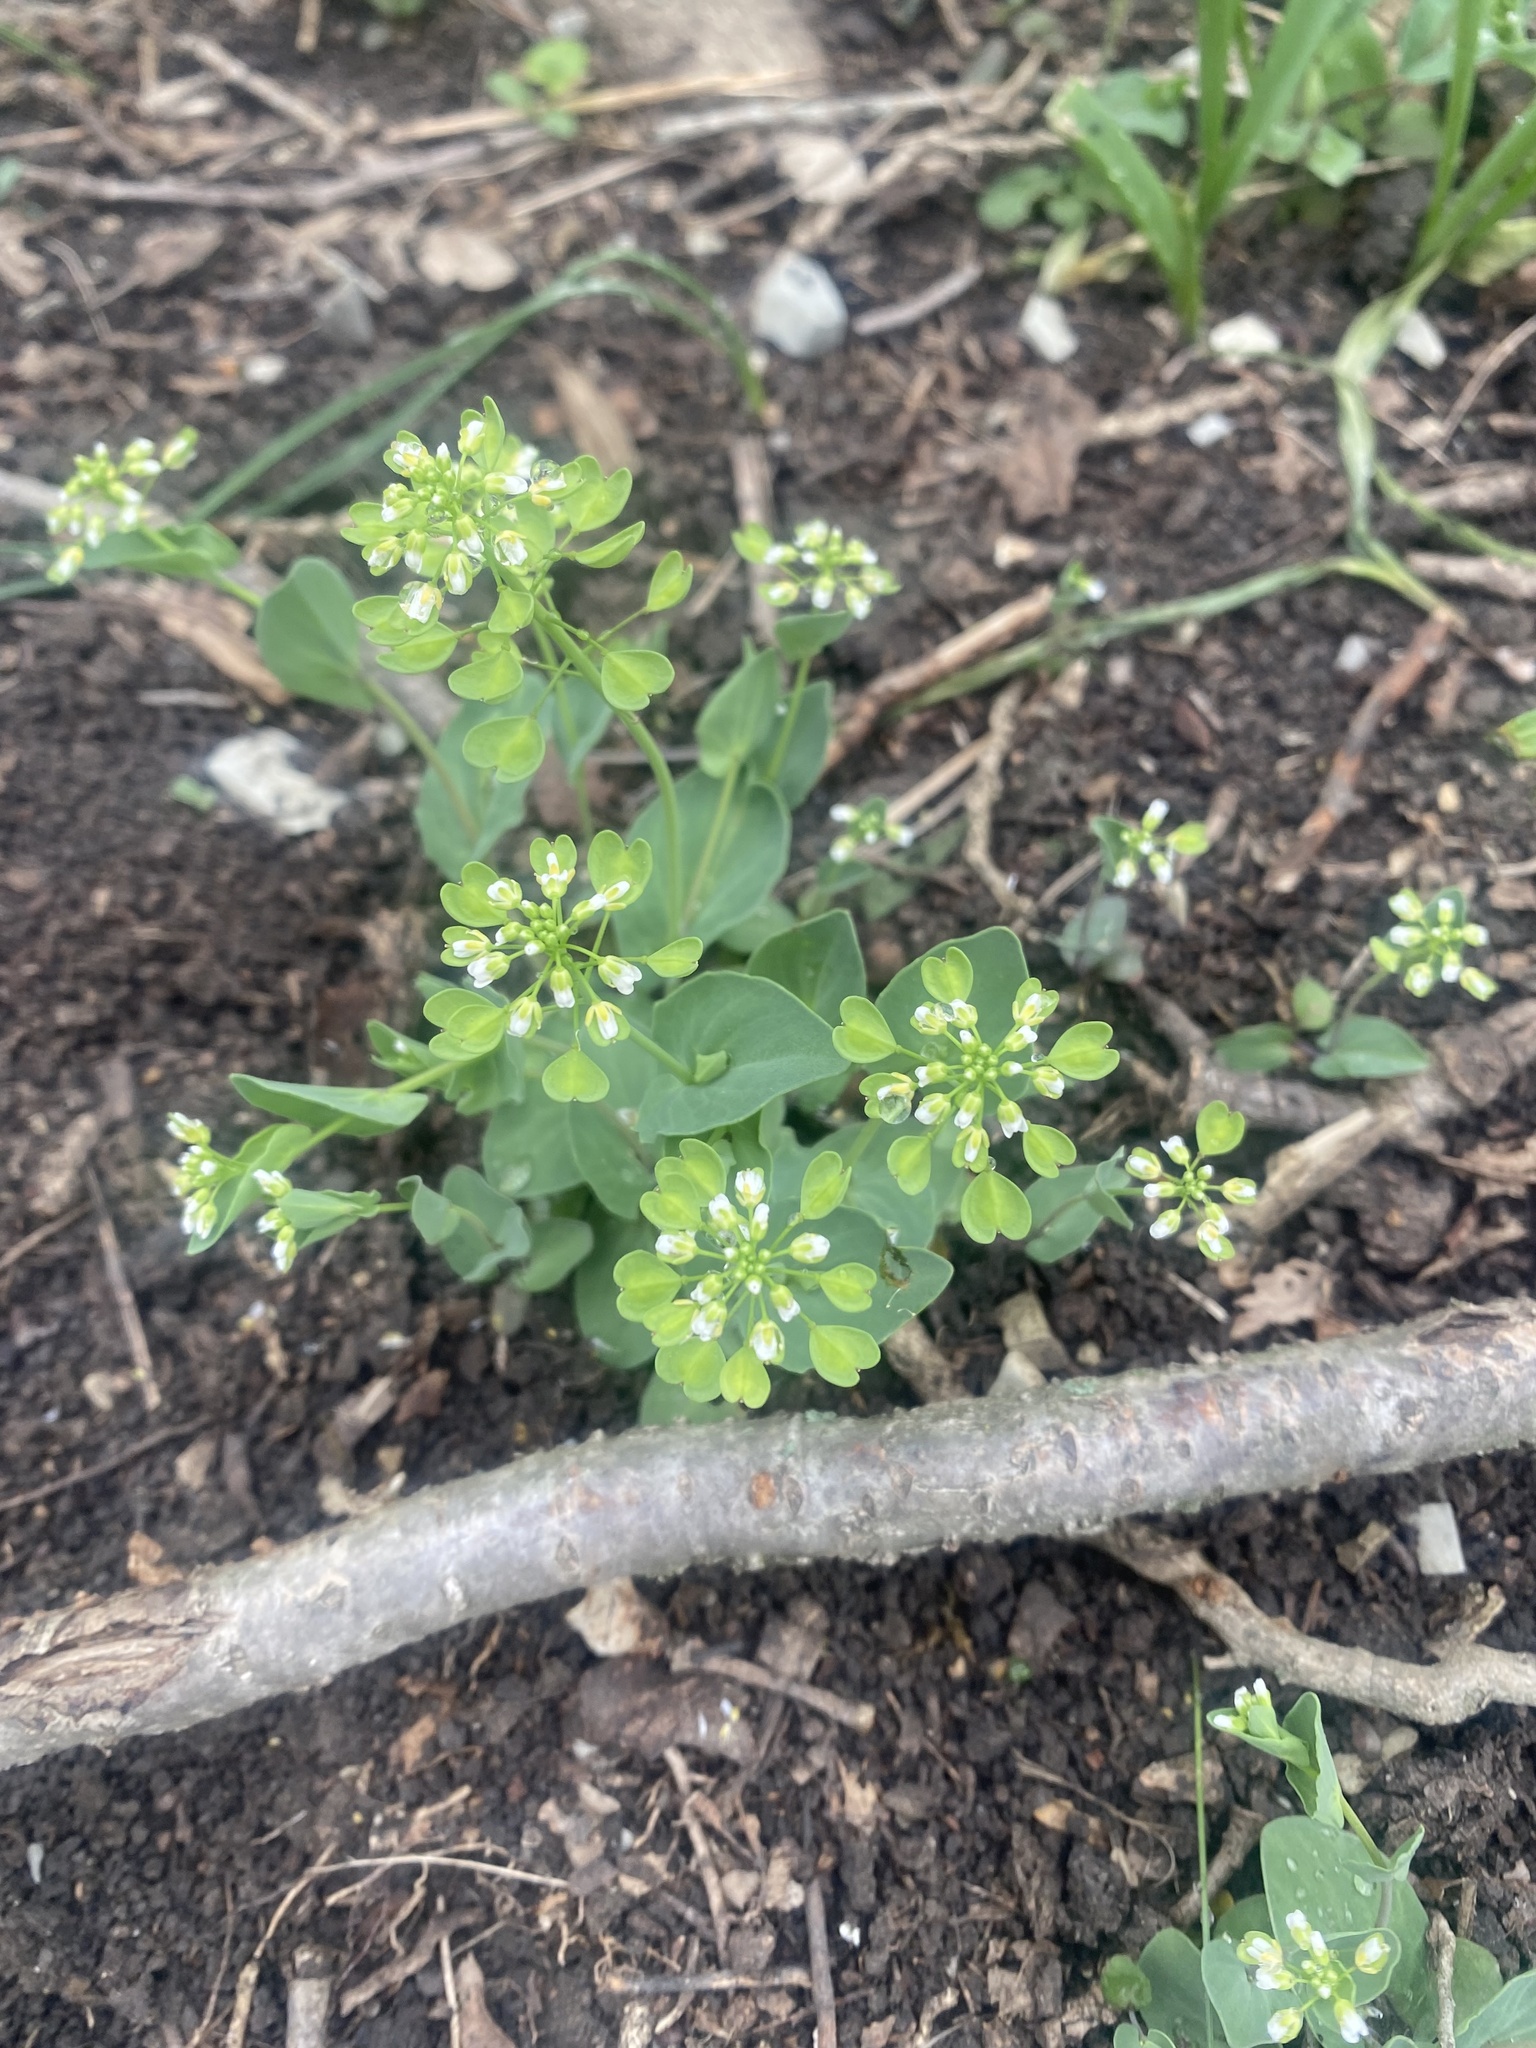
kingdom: Plantae
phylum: Tracheophyta
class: Magnoliopsida
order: Brassicales
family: Brassicaceae
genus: Noccaea
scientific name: Noccaea perfoliata
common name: Perfoliate pennycress
